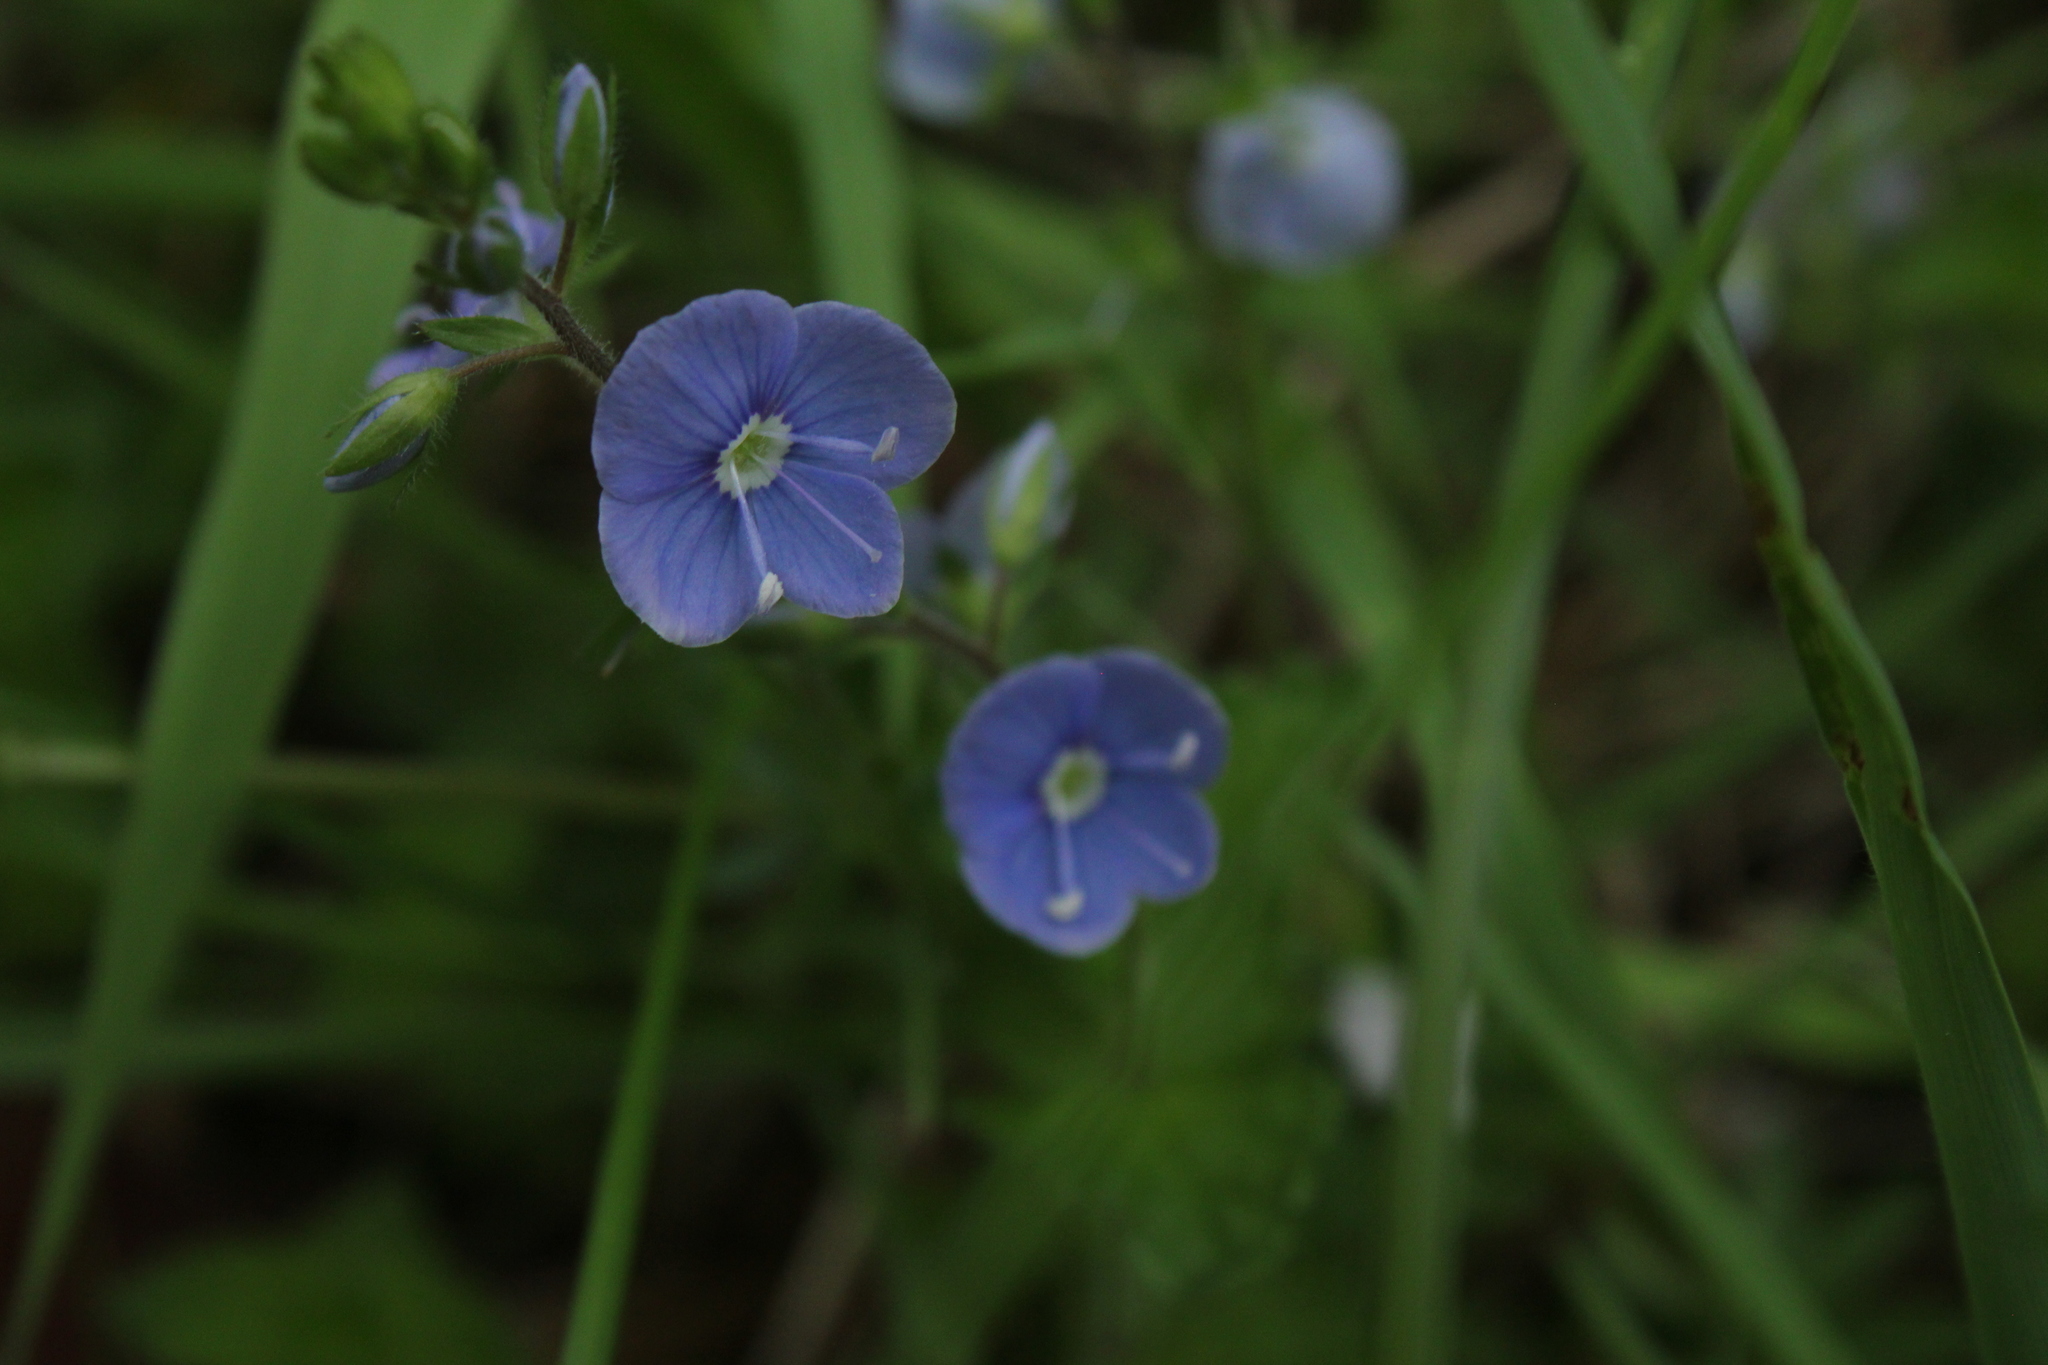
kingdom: Plantae
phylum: Tracheophyta
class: Magnoliopsida
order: Lamiales
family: Plantaginaceae
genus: Veronica
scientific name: Veronica chamaedrys
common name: Germander speedwell
